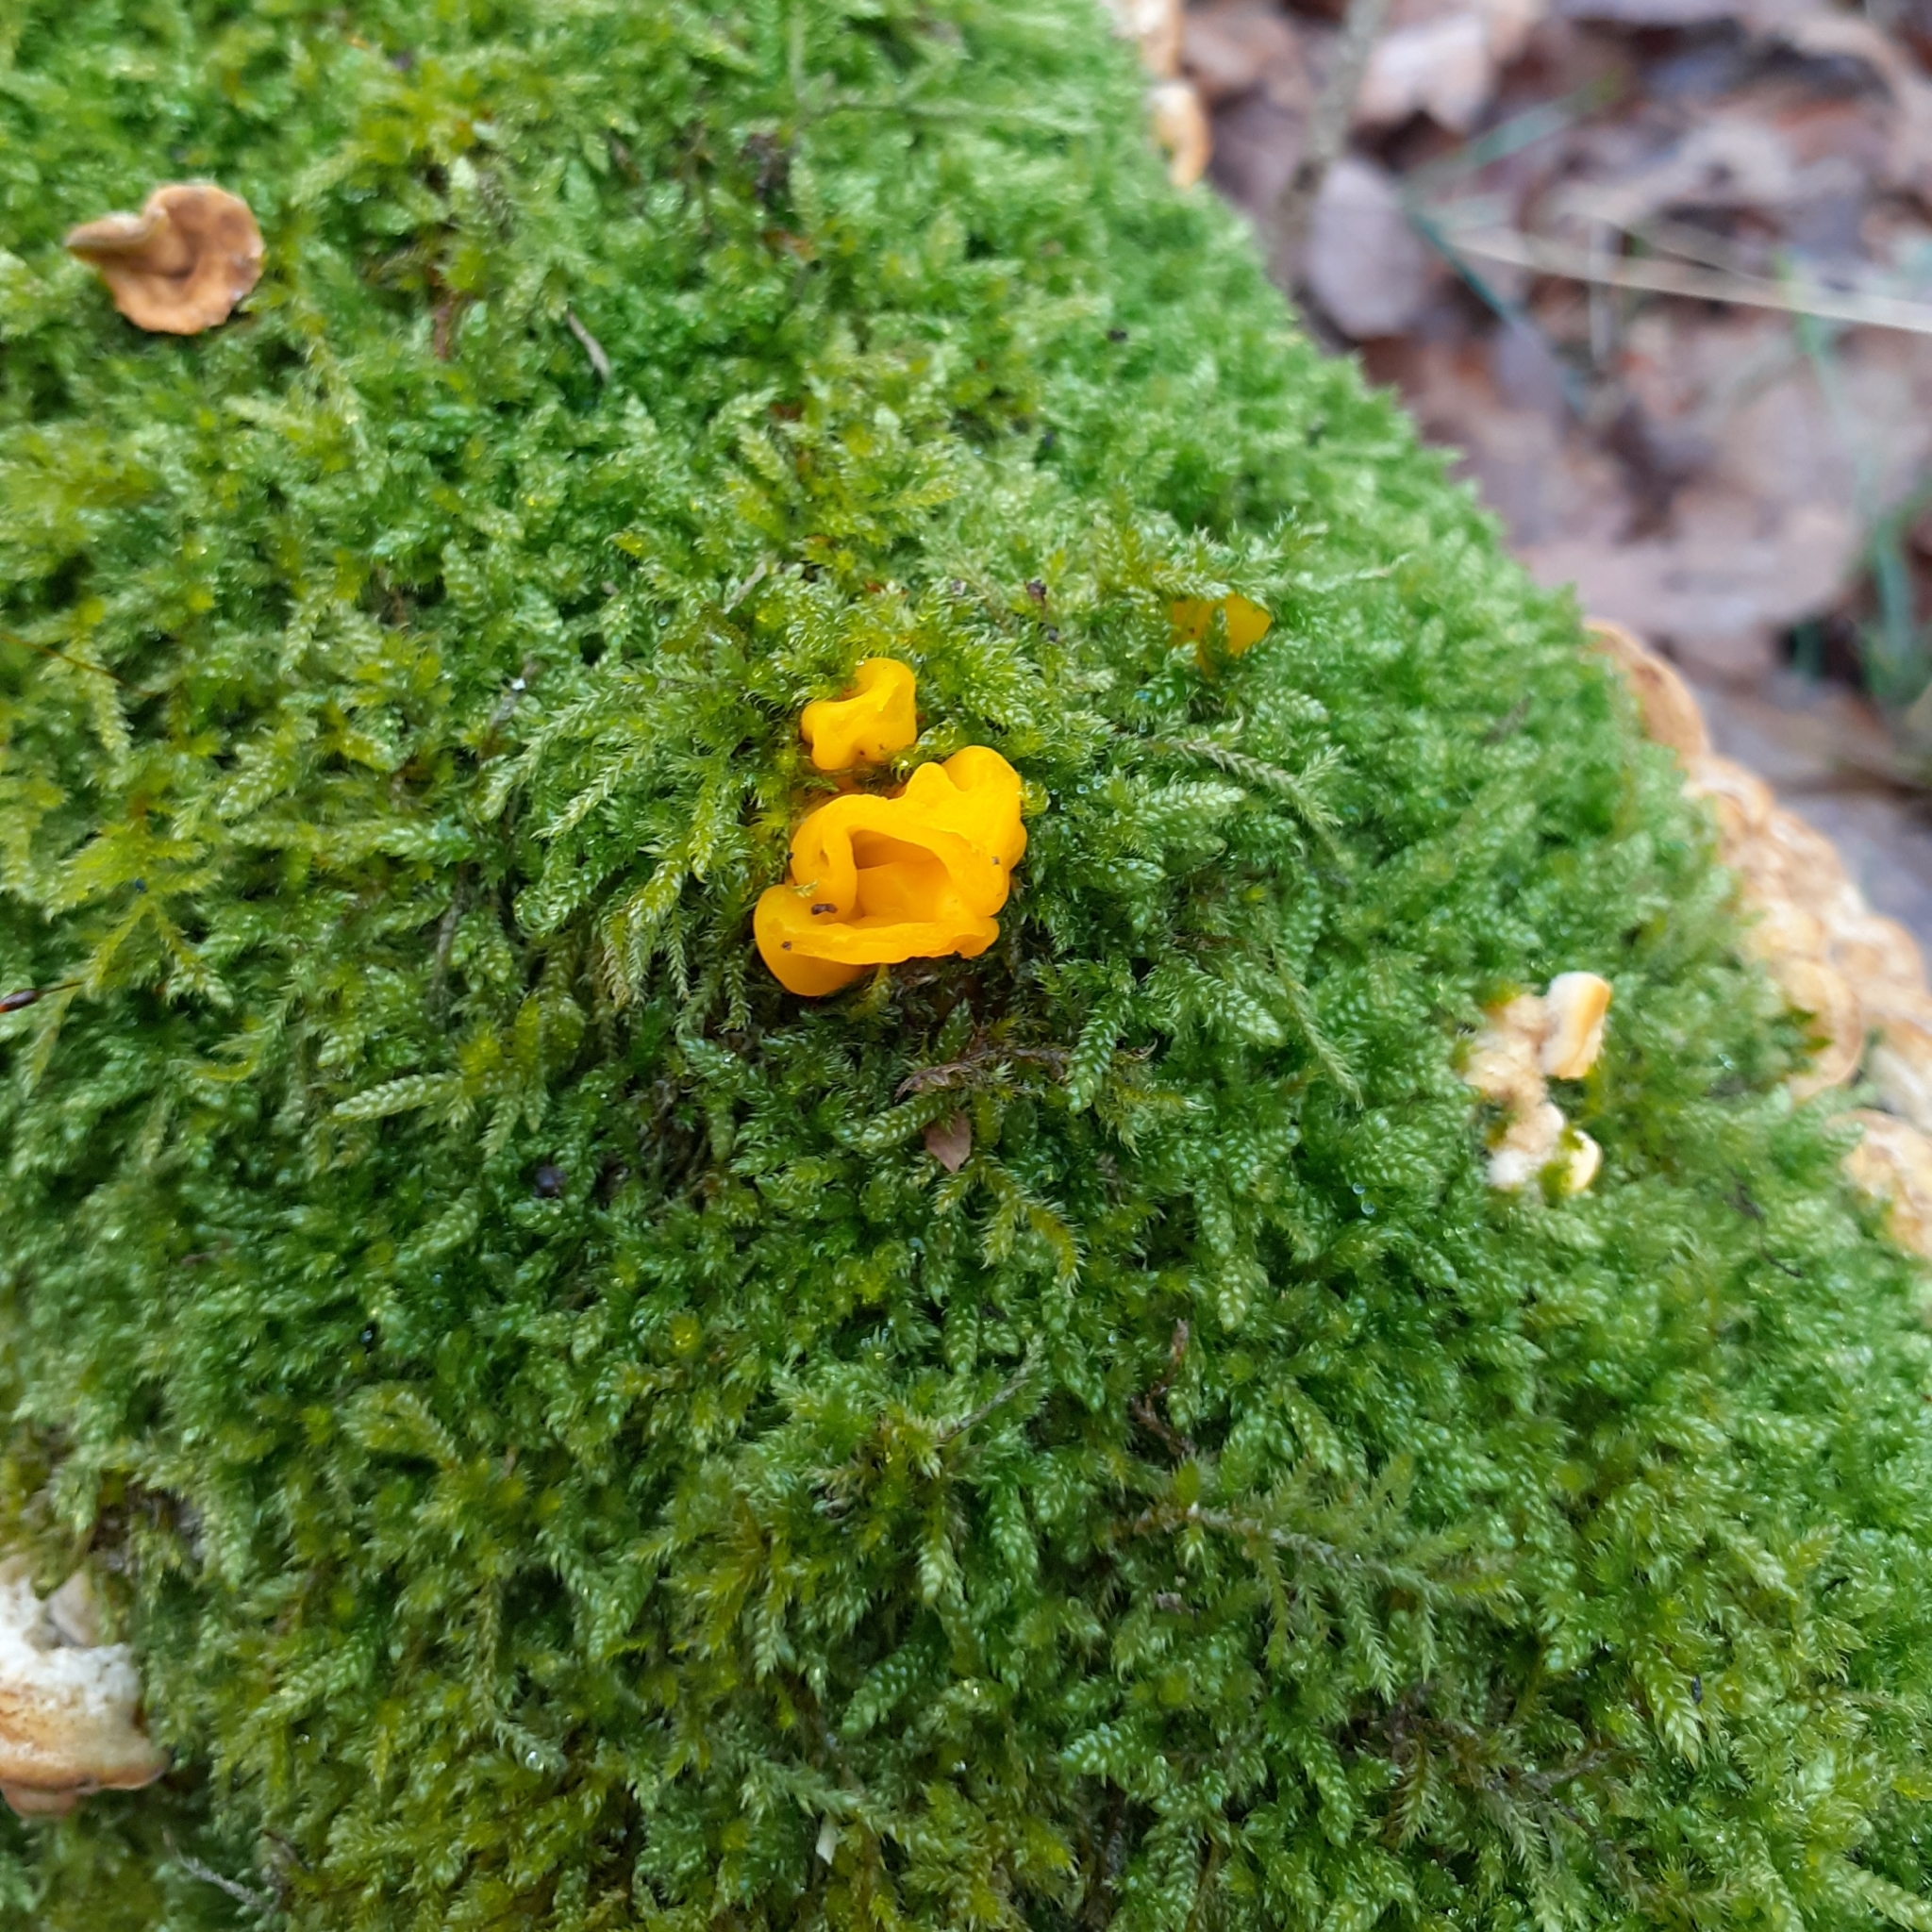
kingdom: Fungi
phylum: Basidiomycota
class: Tremellomycetes
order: Tremellales
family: Naemateliaceae
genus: Naematelia
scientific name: Naematelia aurantia
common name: Golden ear
